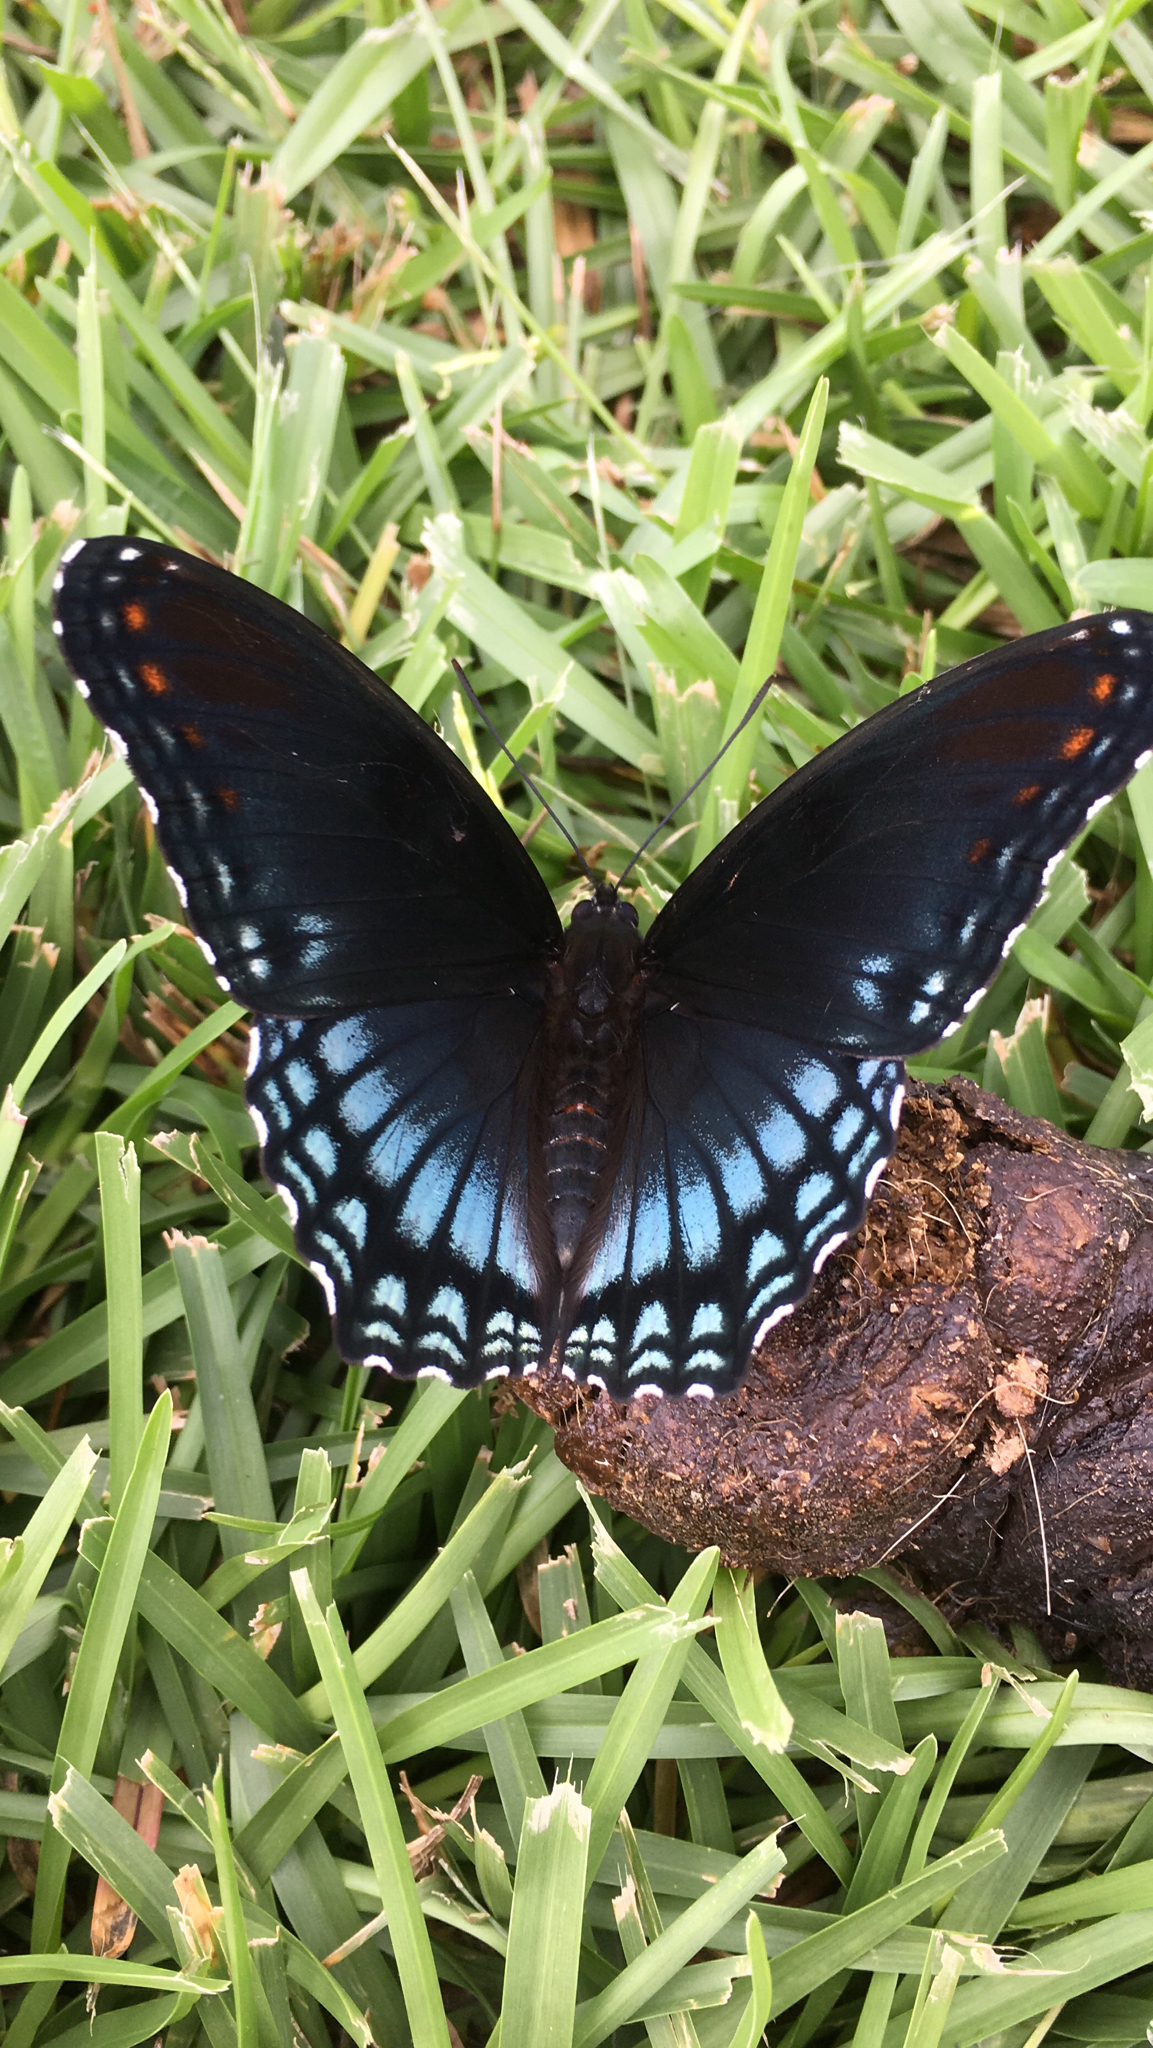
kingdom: Animalia
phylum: Arthropoda
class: Insecta
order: Lepidoptera
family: Nymphalidae
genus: Limenitis
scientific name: Limenitis arthemis
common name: Red-spotted admiral
